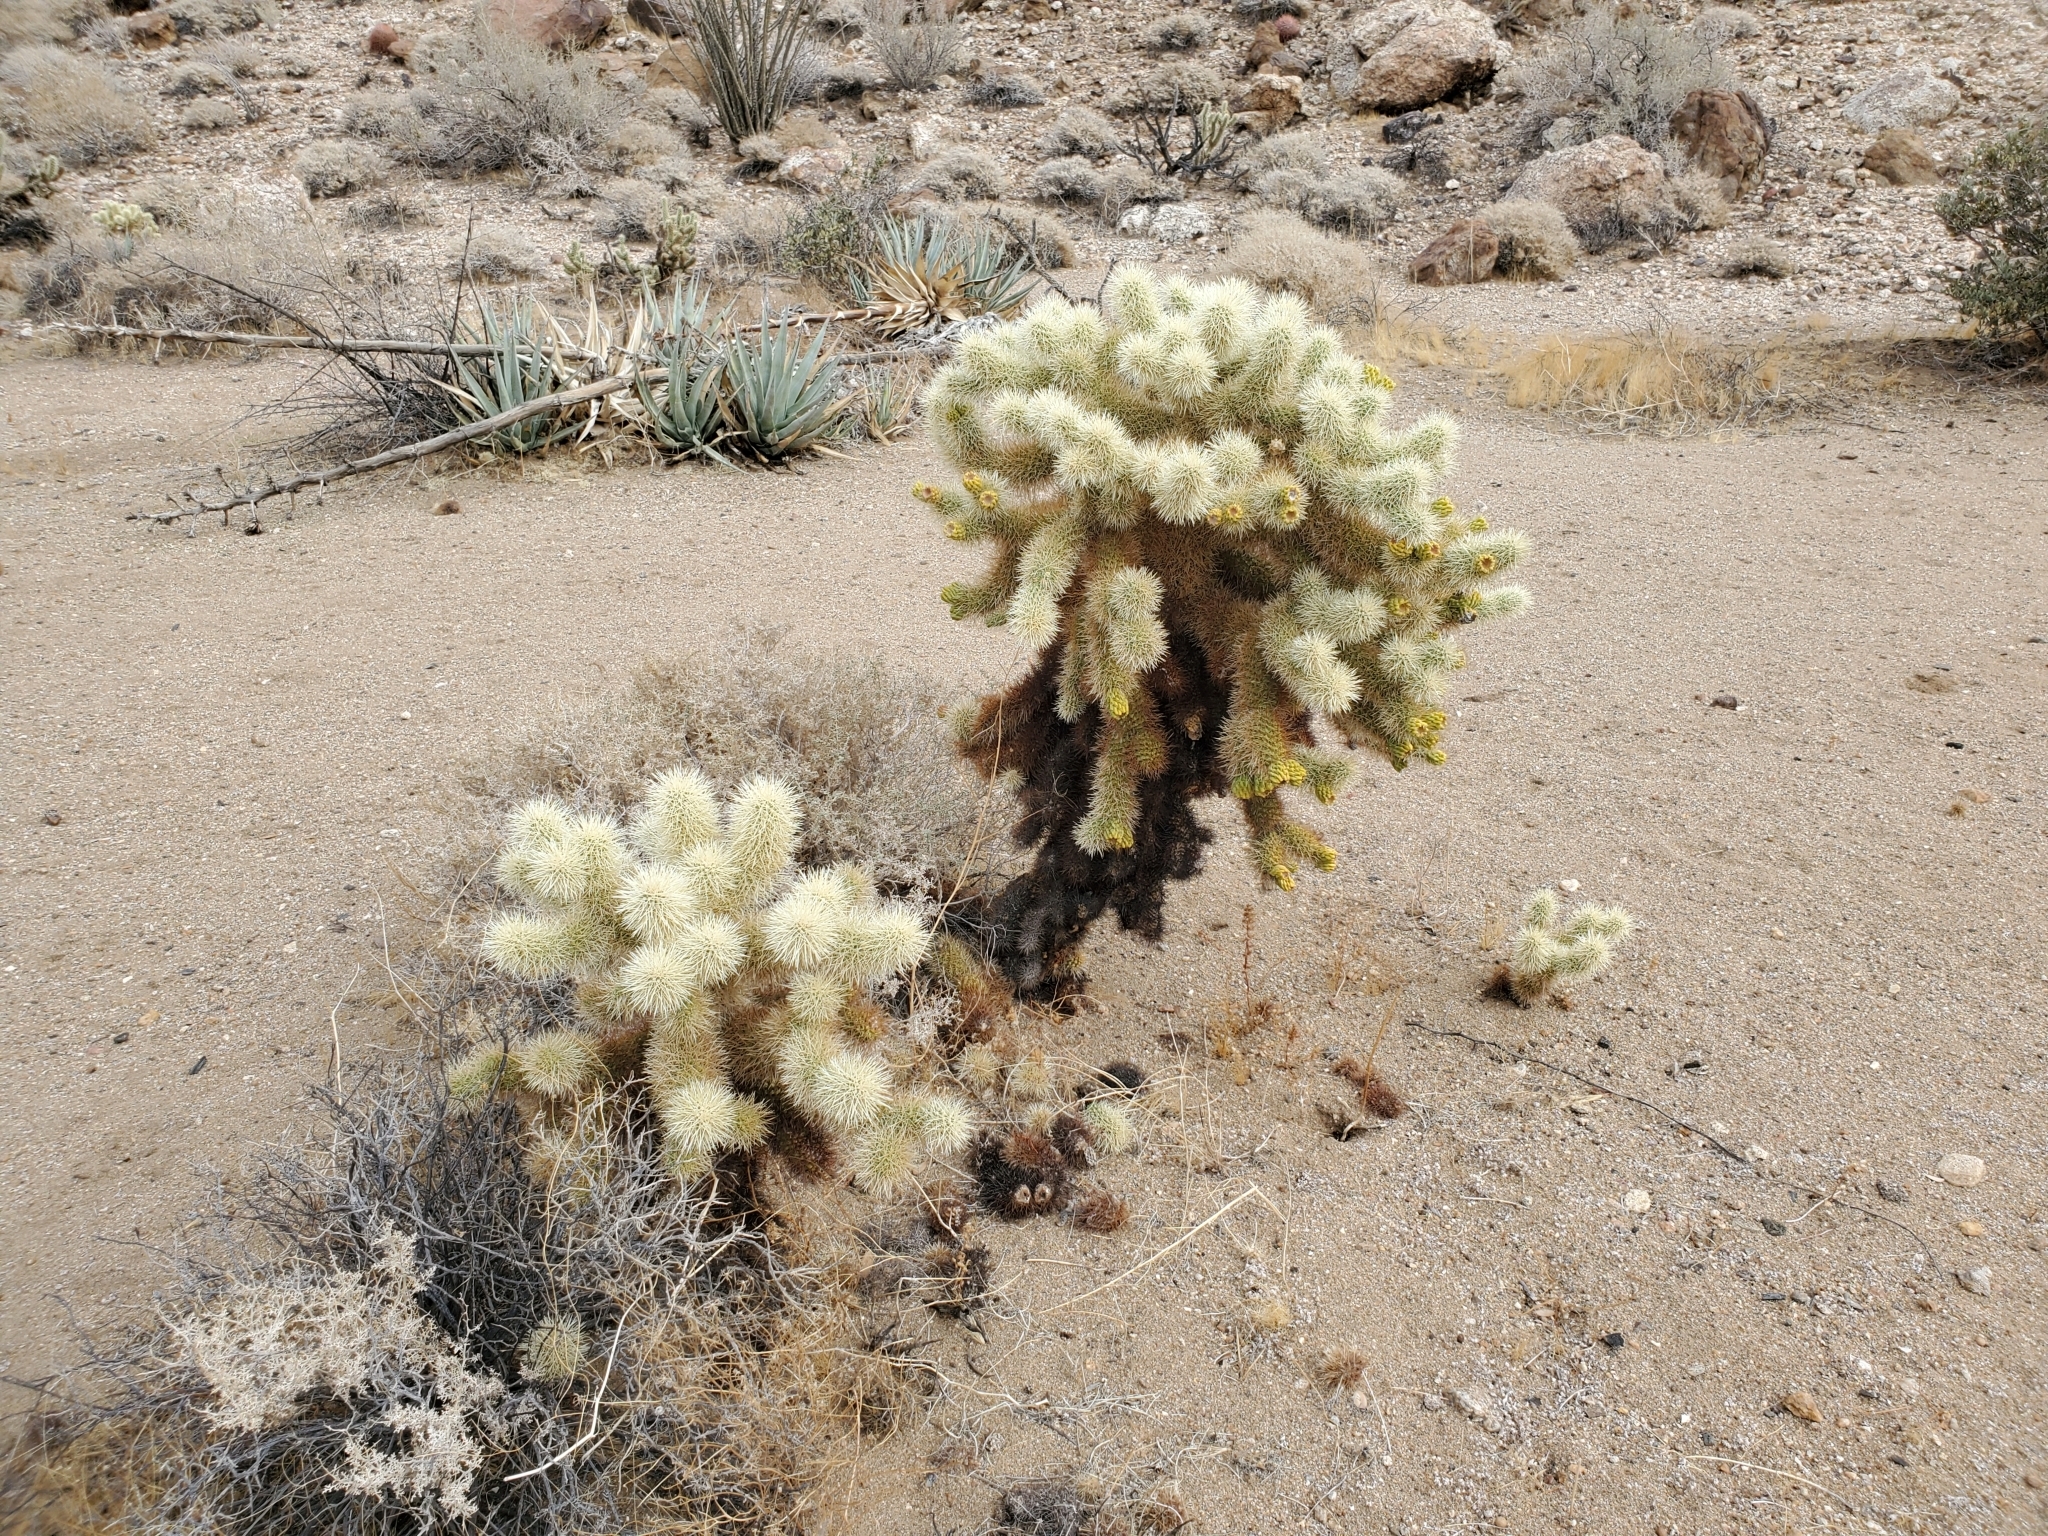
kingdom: Plantae
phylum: Tracheophyta
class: Magnoliopsida
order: Caryophyllales
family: Cactaceae
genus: Cylindropuntia
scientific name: Cylindropuntia fosbergii
